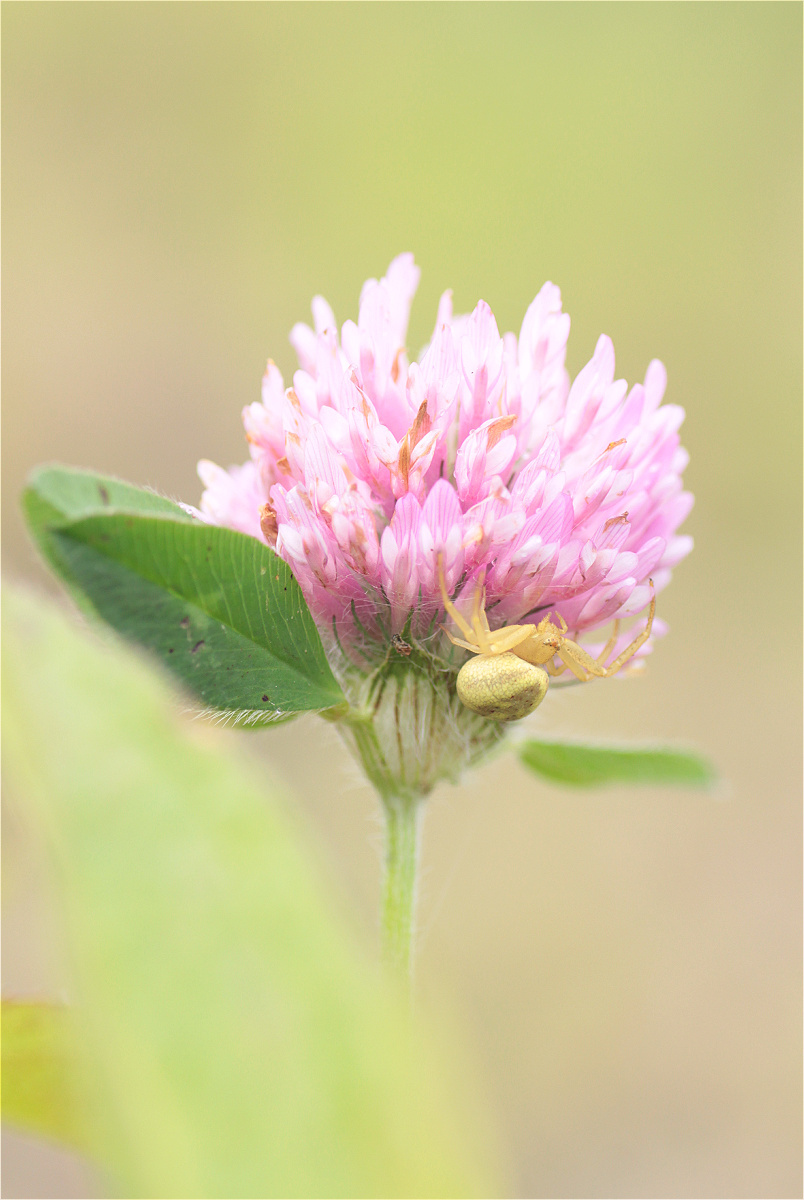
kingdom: Plantae
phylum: Tracheophyta
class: Magnoliopsida
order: Fabales
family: Fabaceae
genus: Trifolium
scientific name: Trifolium pratense
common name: Red clover
